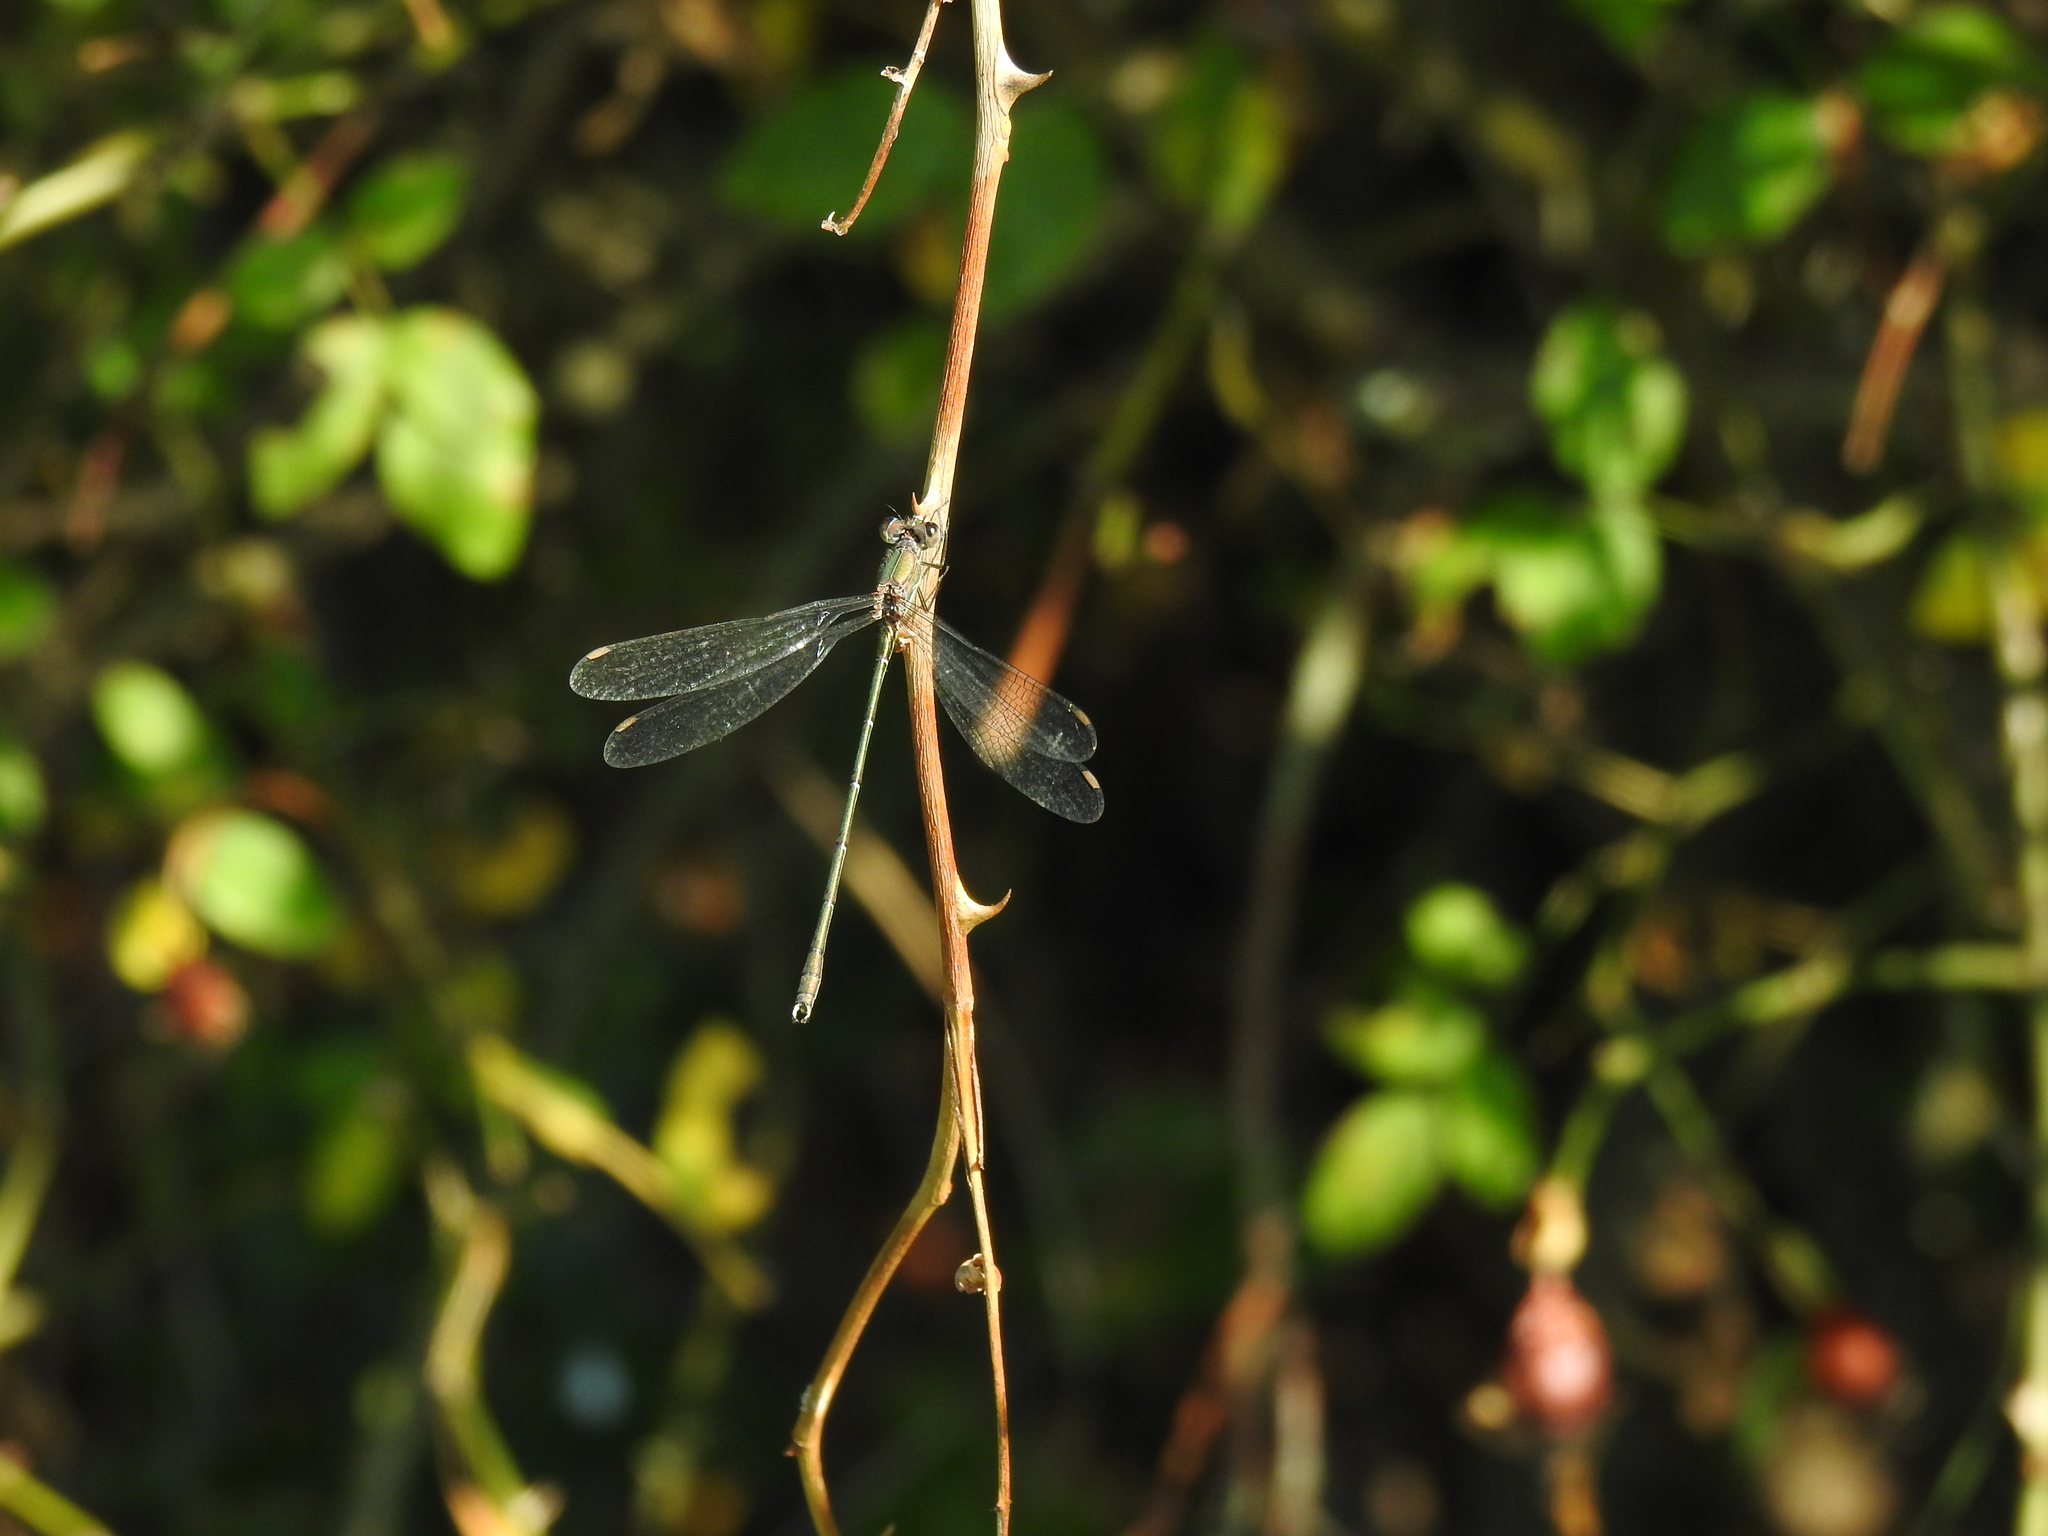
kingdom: Animalia
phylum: Arthropoda
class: Insecta
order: Odonata
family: Lestidae
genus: Chalcolestes
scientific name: Chalcolestes viridis
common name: Green emerald damselfly
